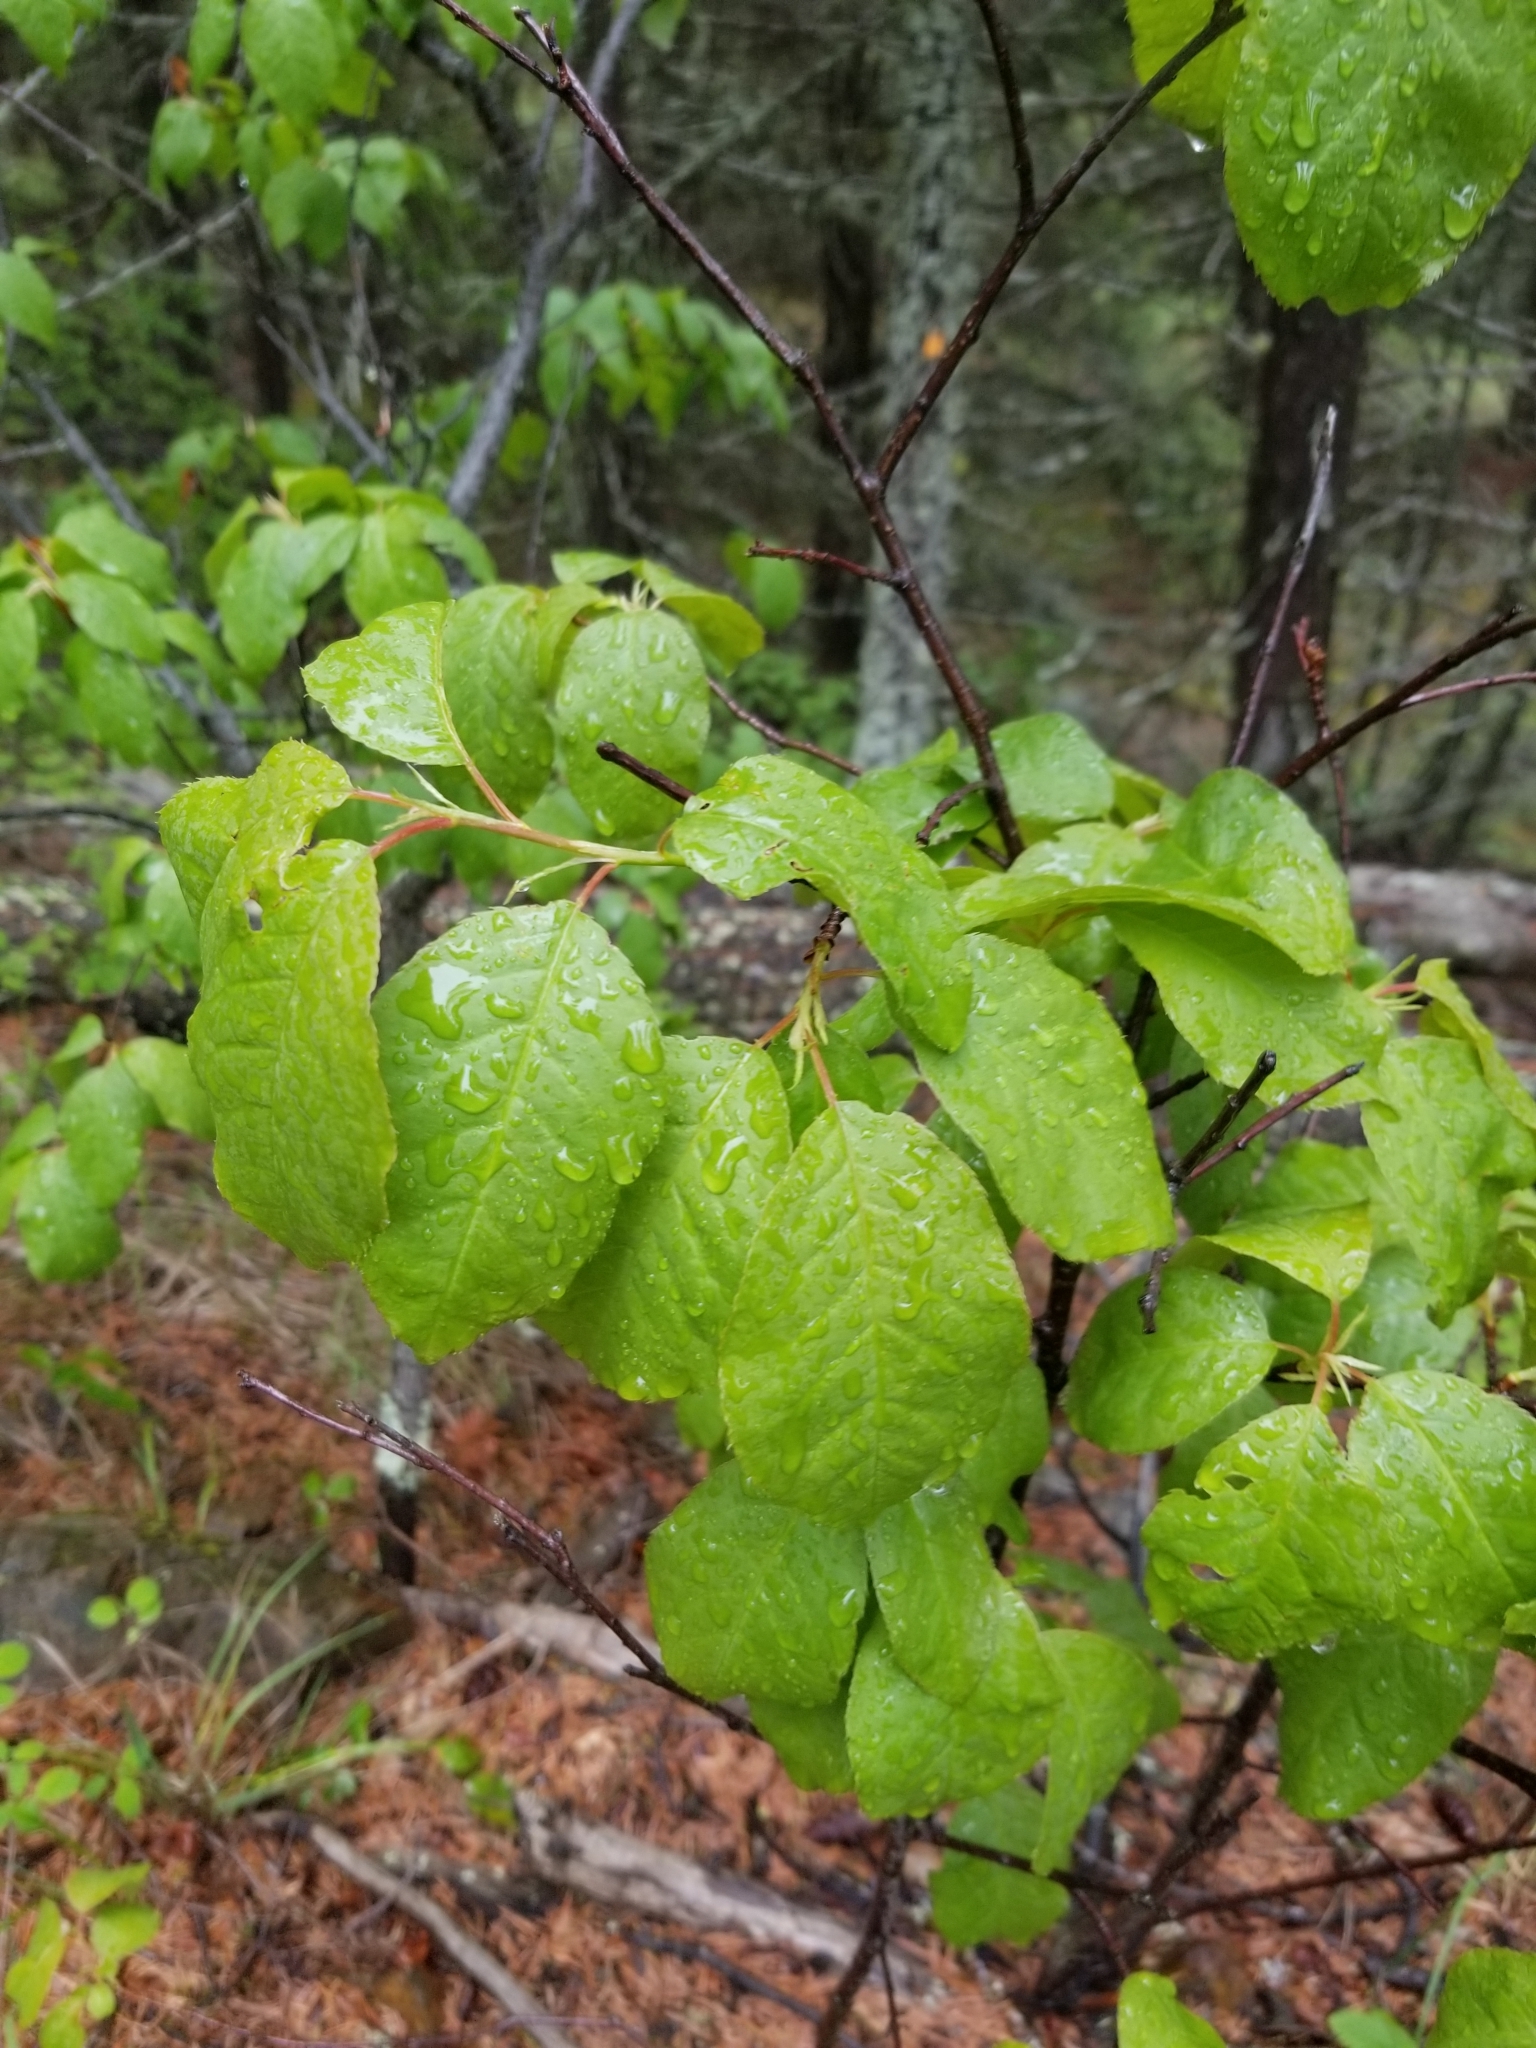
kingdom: Plantae
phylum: Tracheophyta
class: Magnoliopsida
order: Rosales
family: Rosaceae
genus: Prunus
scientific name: Prunus virginiana
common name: Chokecherry
